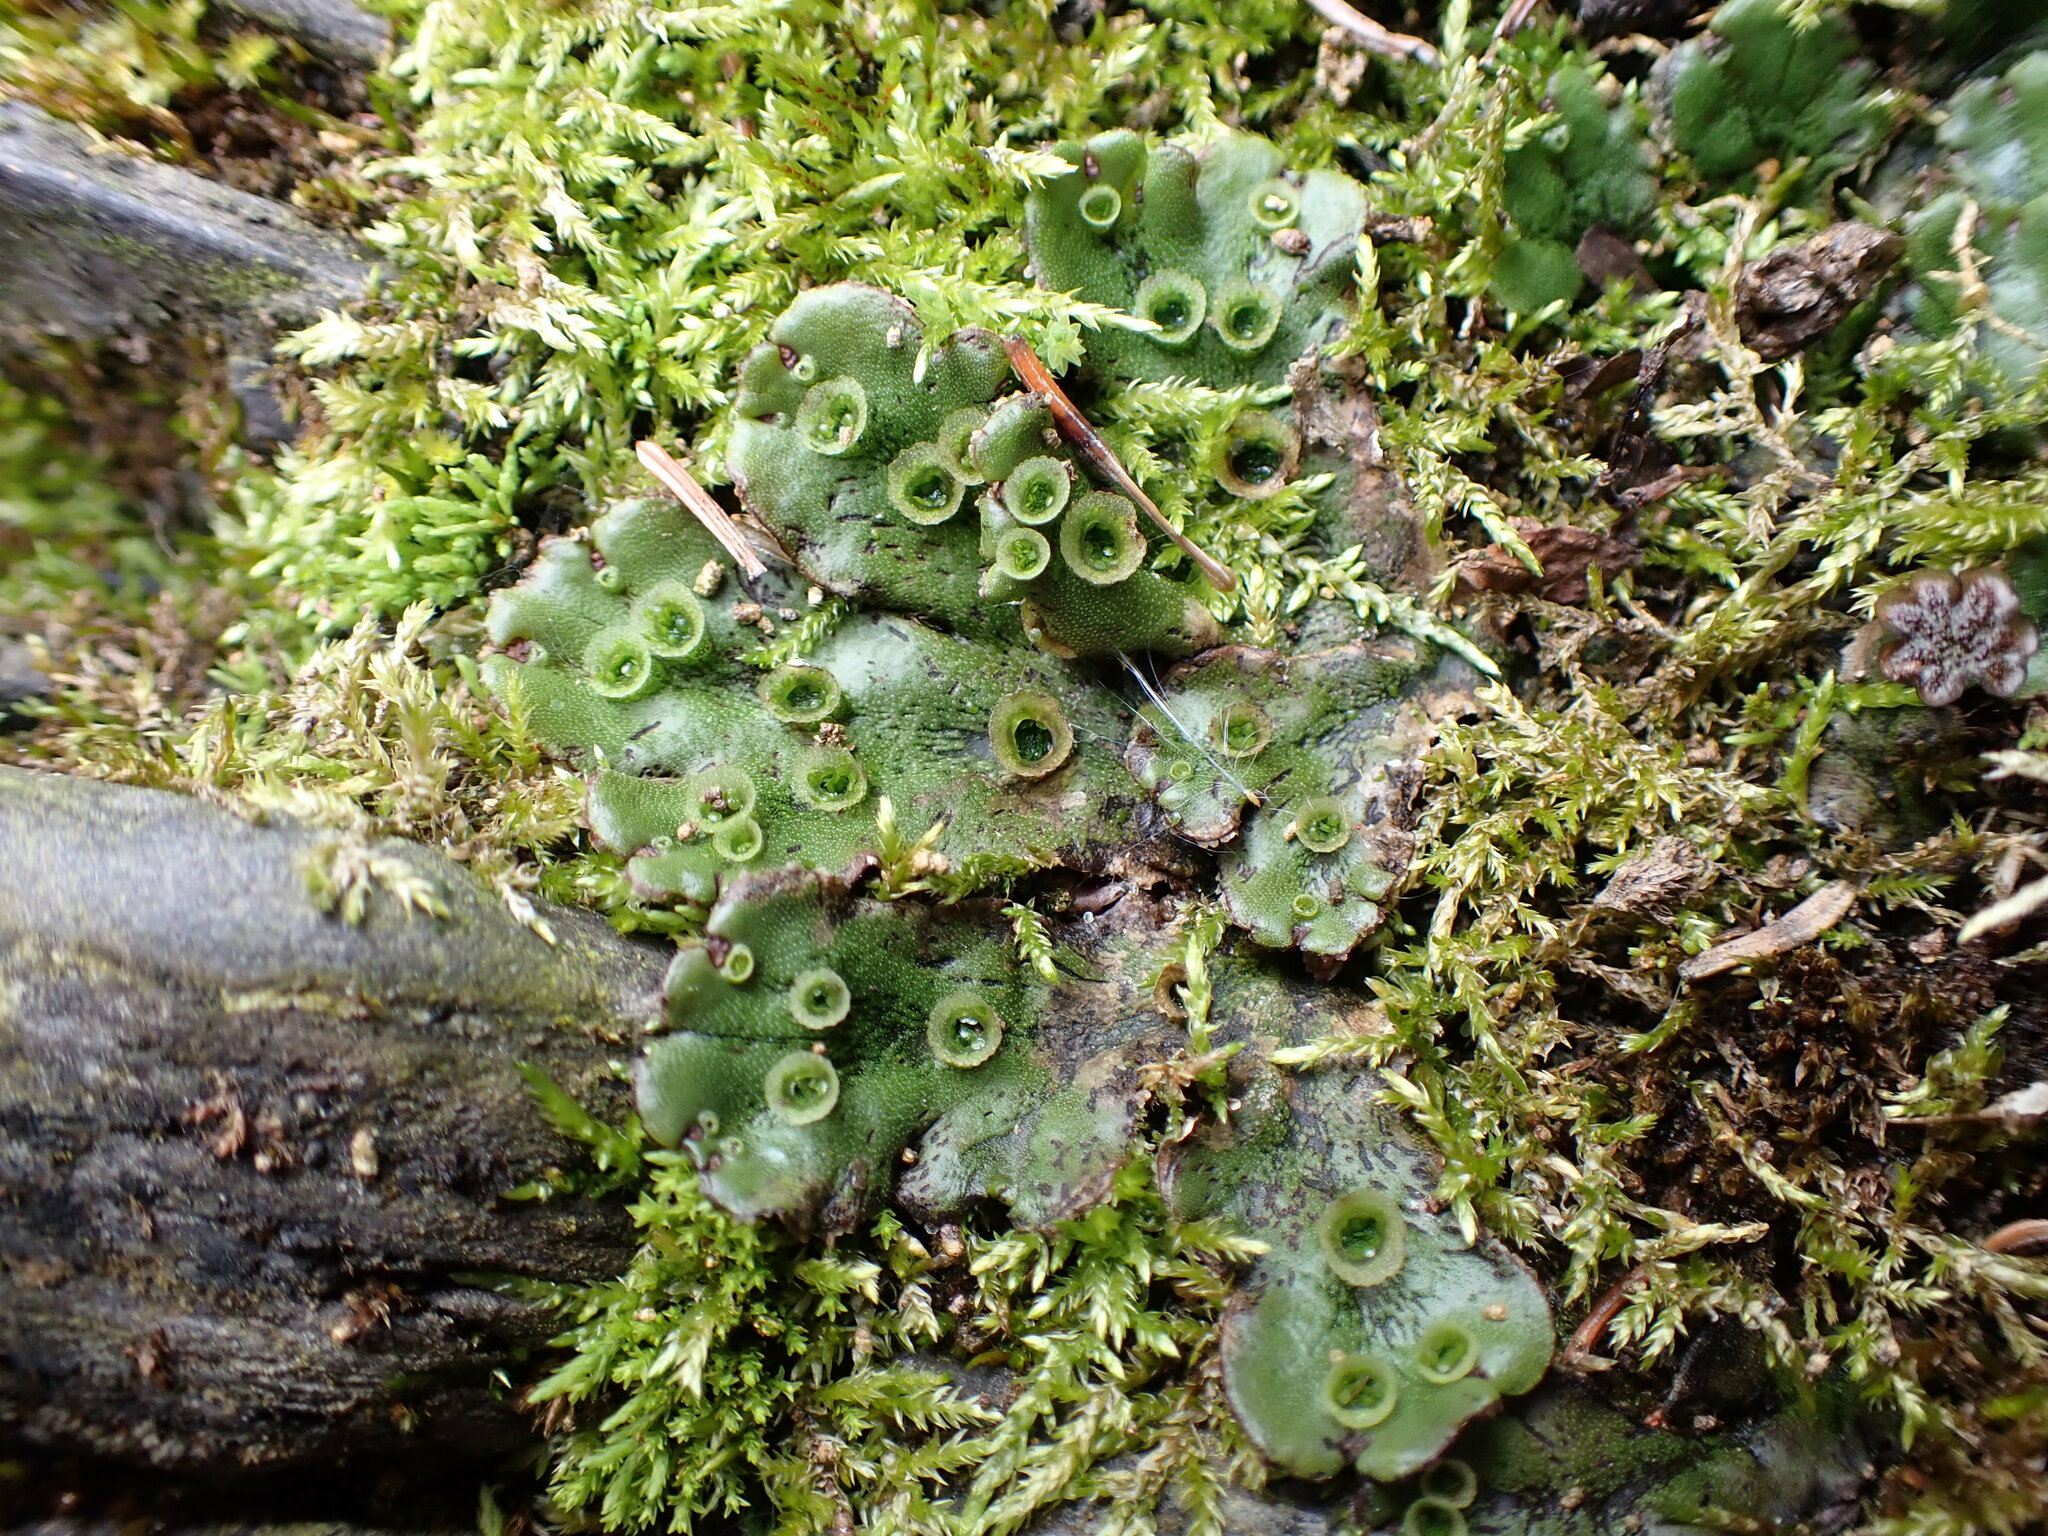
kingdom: Plantae
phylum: Marchantiophyta
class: Marchantiopsida
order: Marchantiales
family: Marchantiaceae
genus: Marchantia
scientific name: Marchantia polymorpha
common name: Common liverwort
